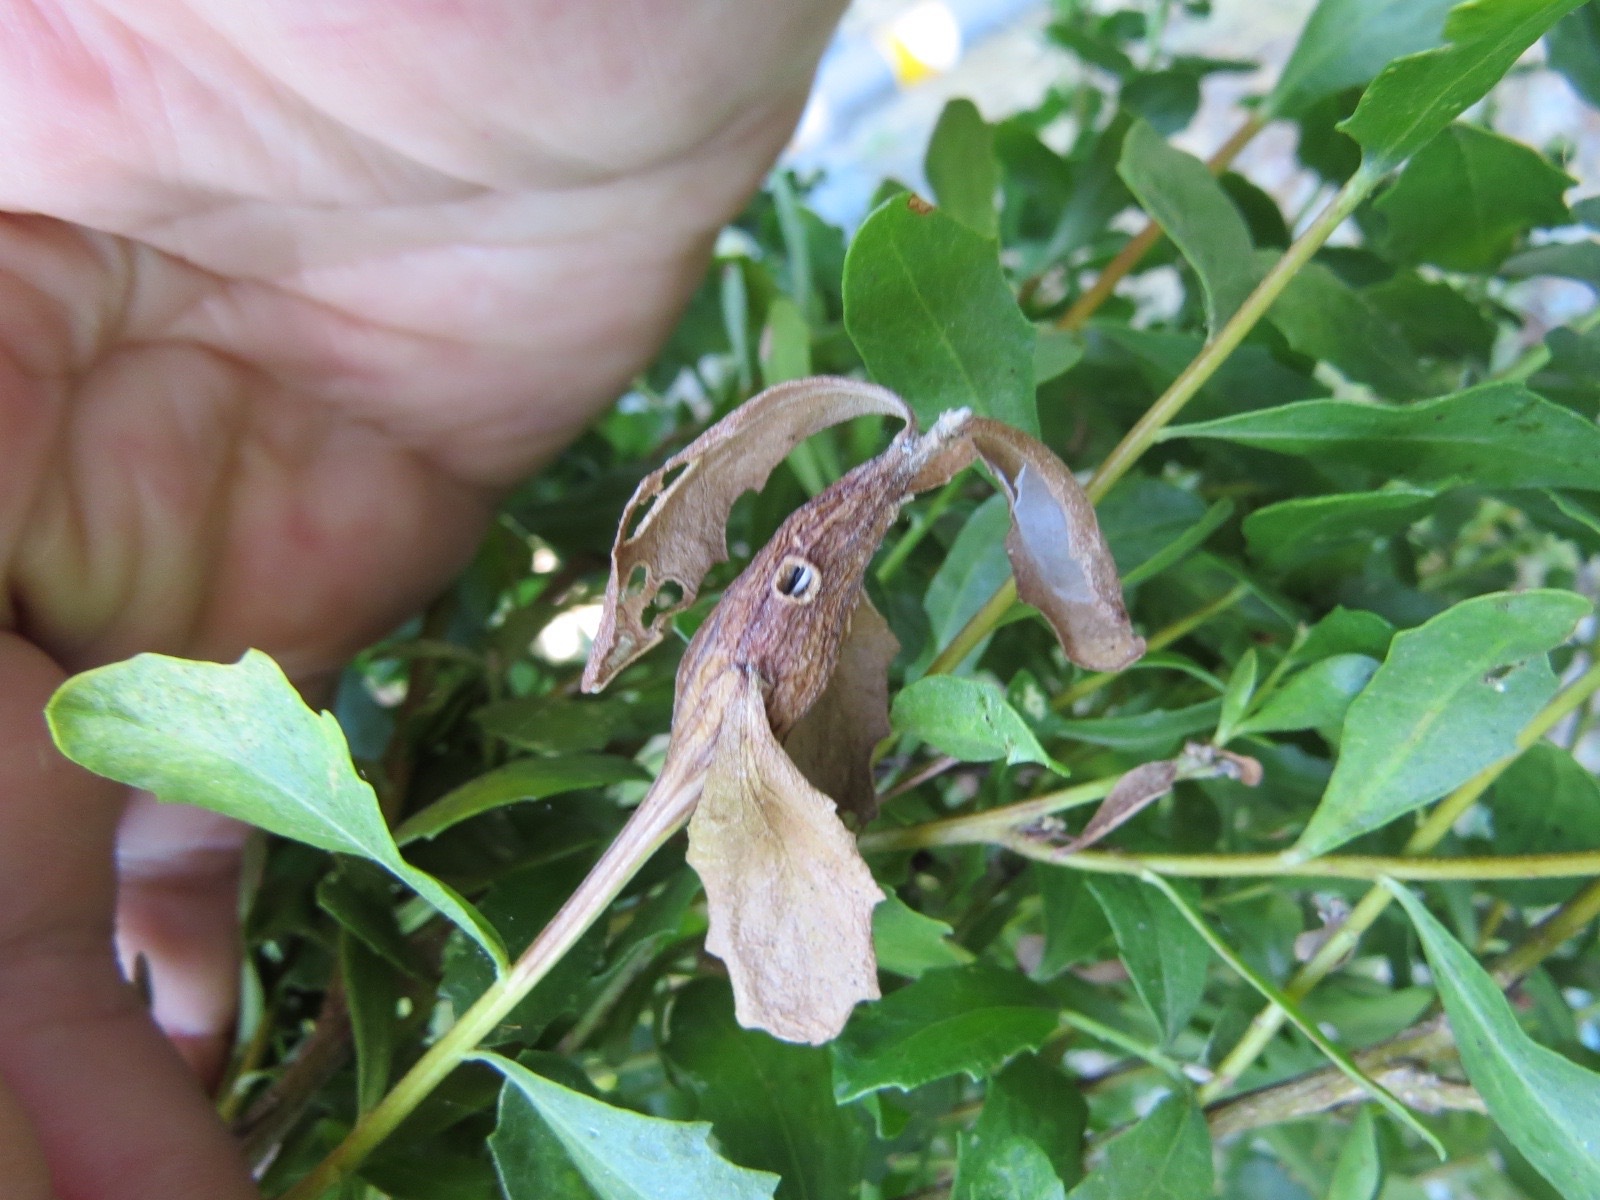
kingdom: Animalia
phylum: Arthropoda
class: Insecta
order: Lepidoptera
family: Gelechiidae
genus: Gnorimoschema
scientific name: Gnorimoschema baccharisella
